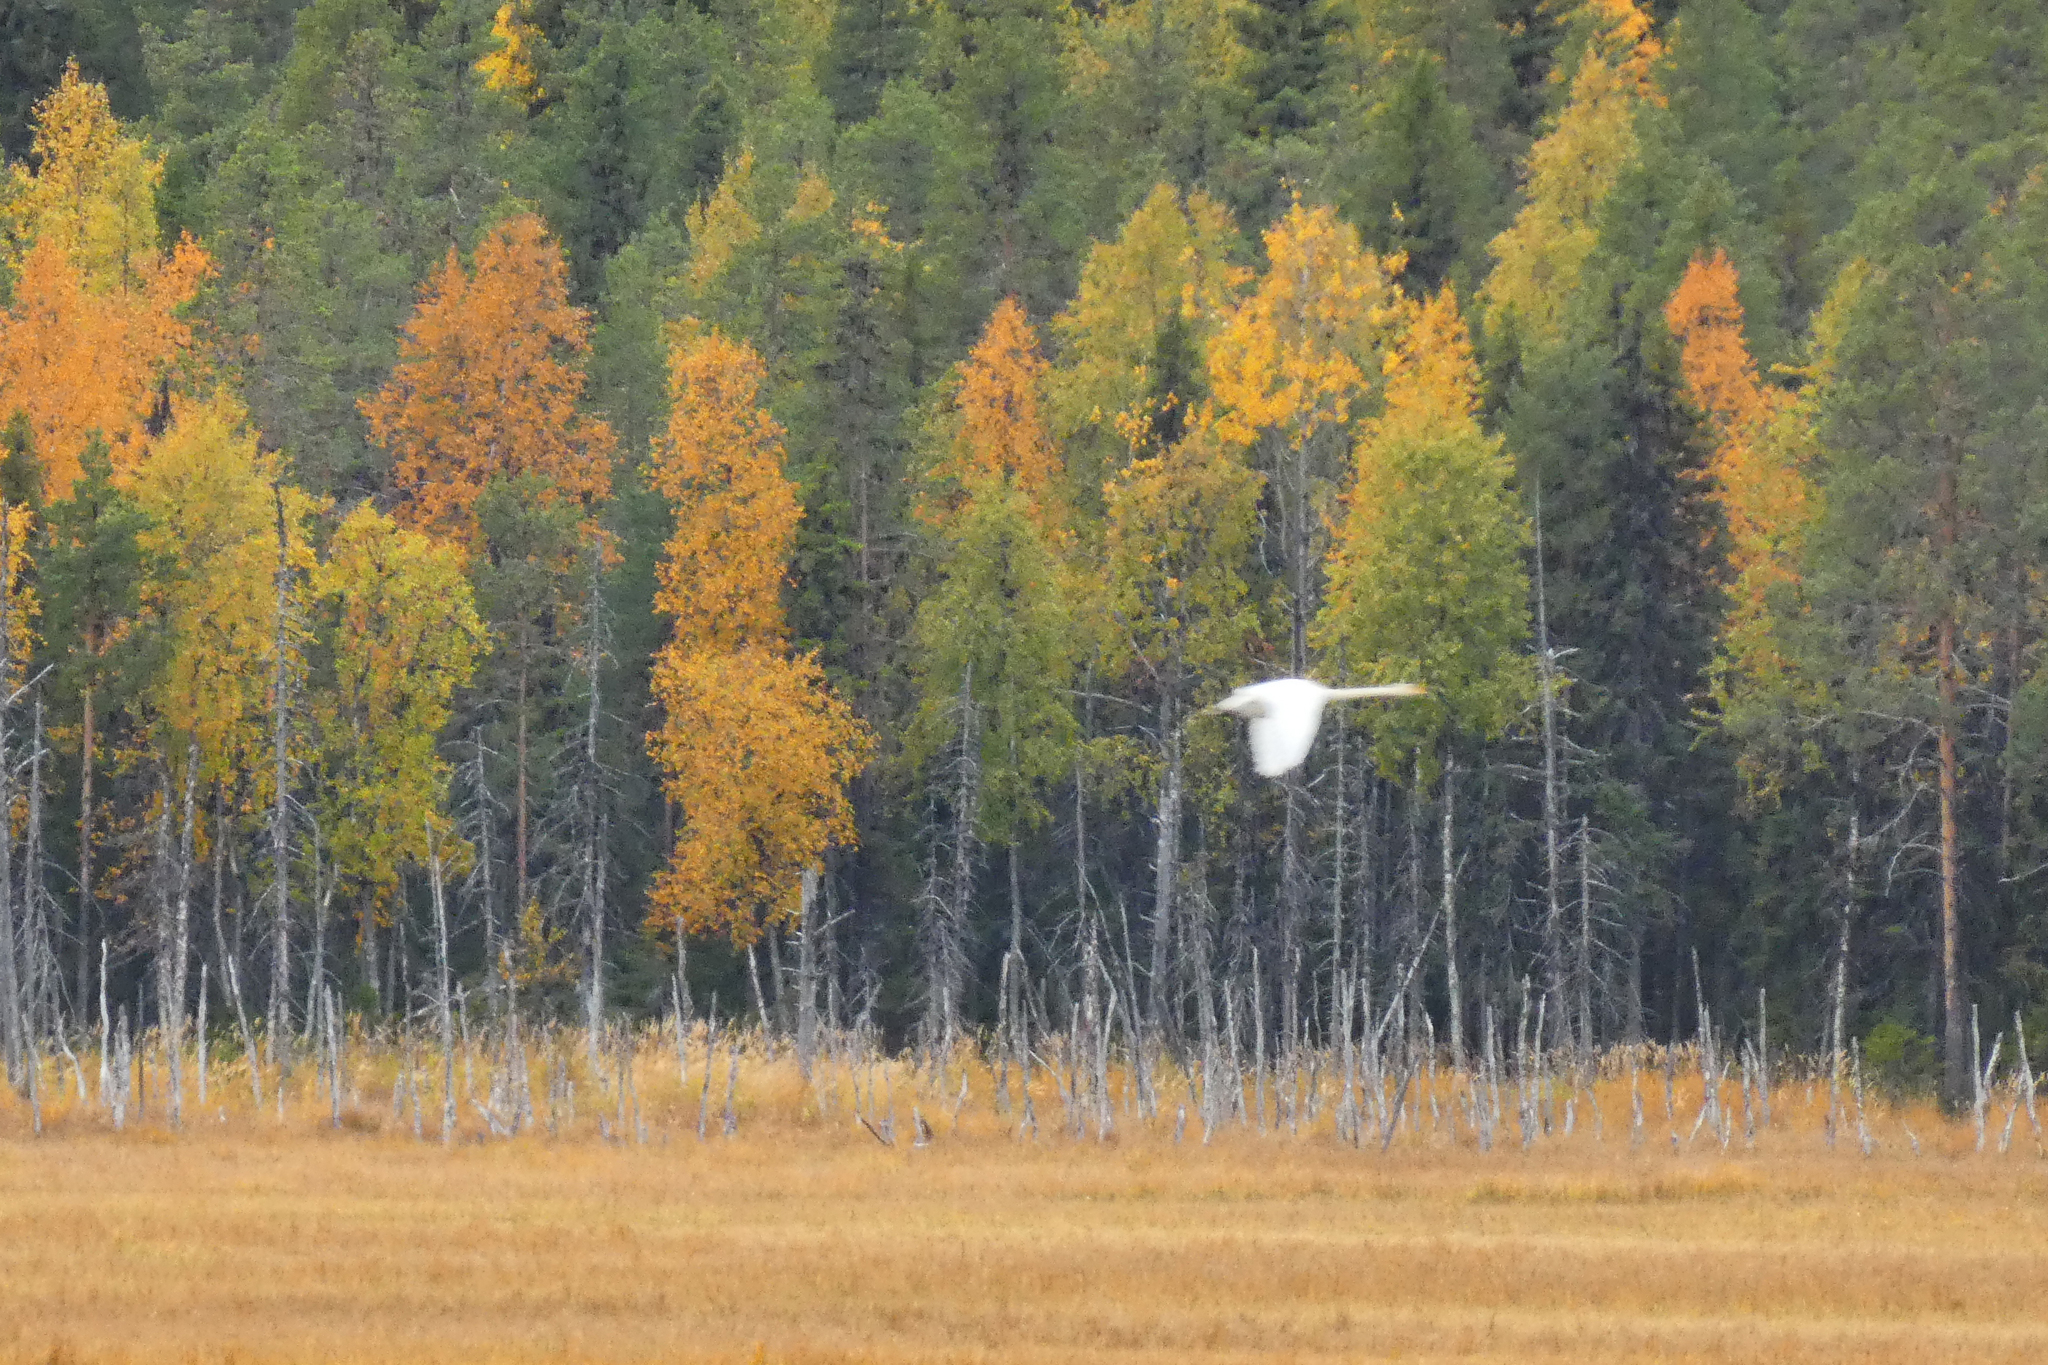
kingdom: Animalia
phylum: Chordata
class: Aves
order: Anseriformes
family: Anatidae
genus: Cygnus
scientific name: Cygnus cygnus
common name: Whooper swan
